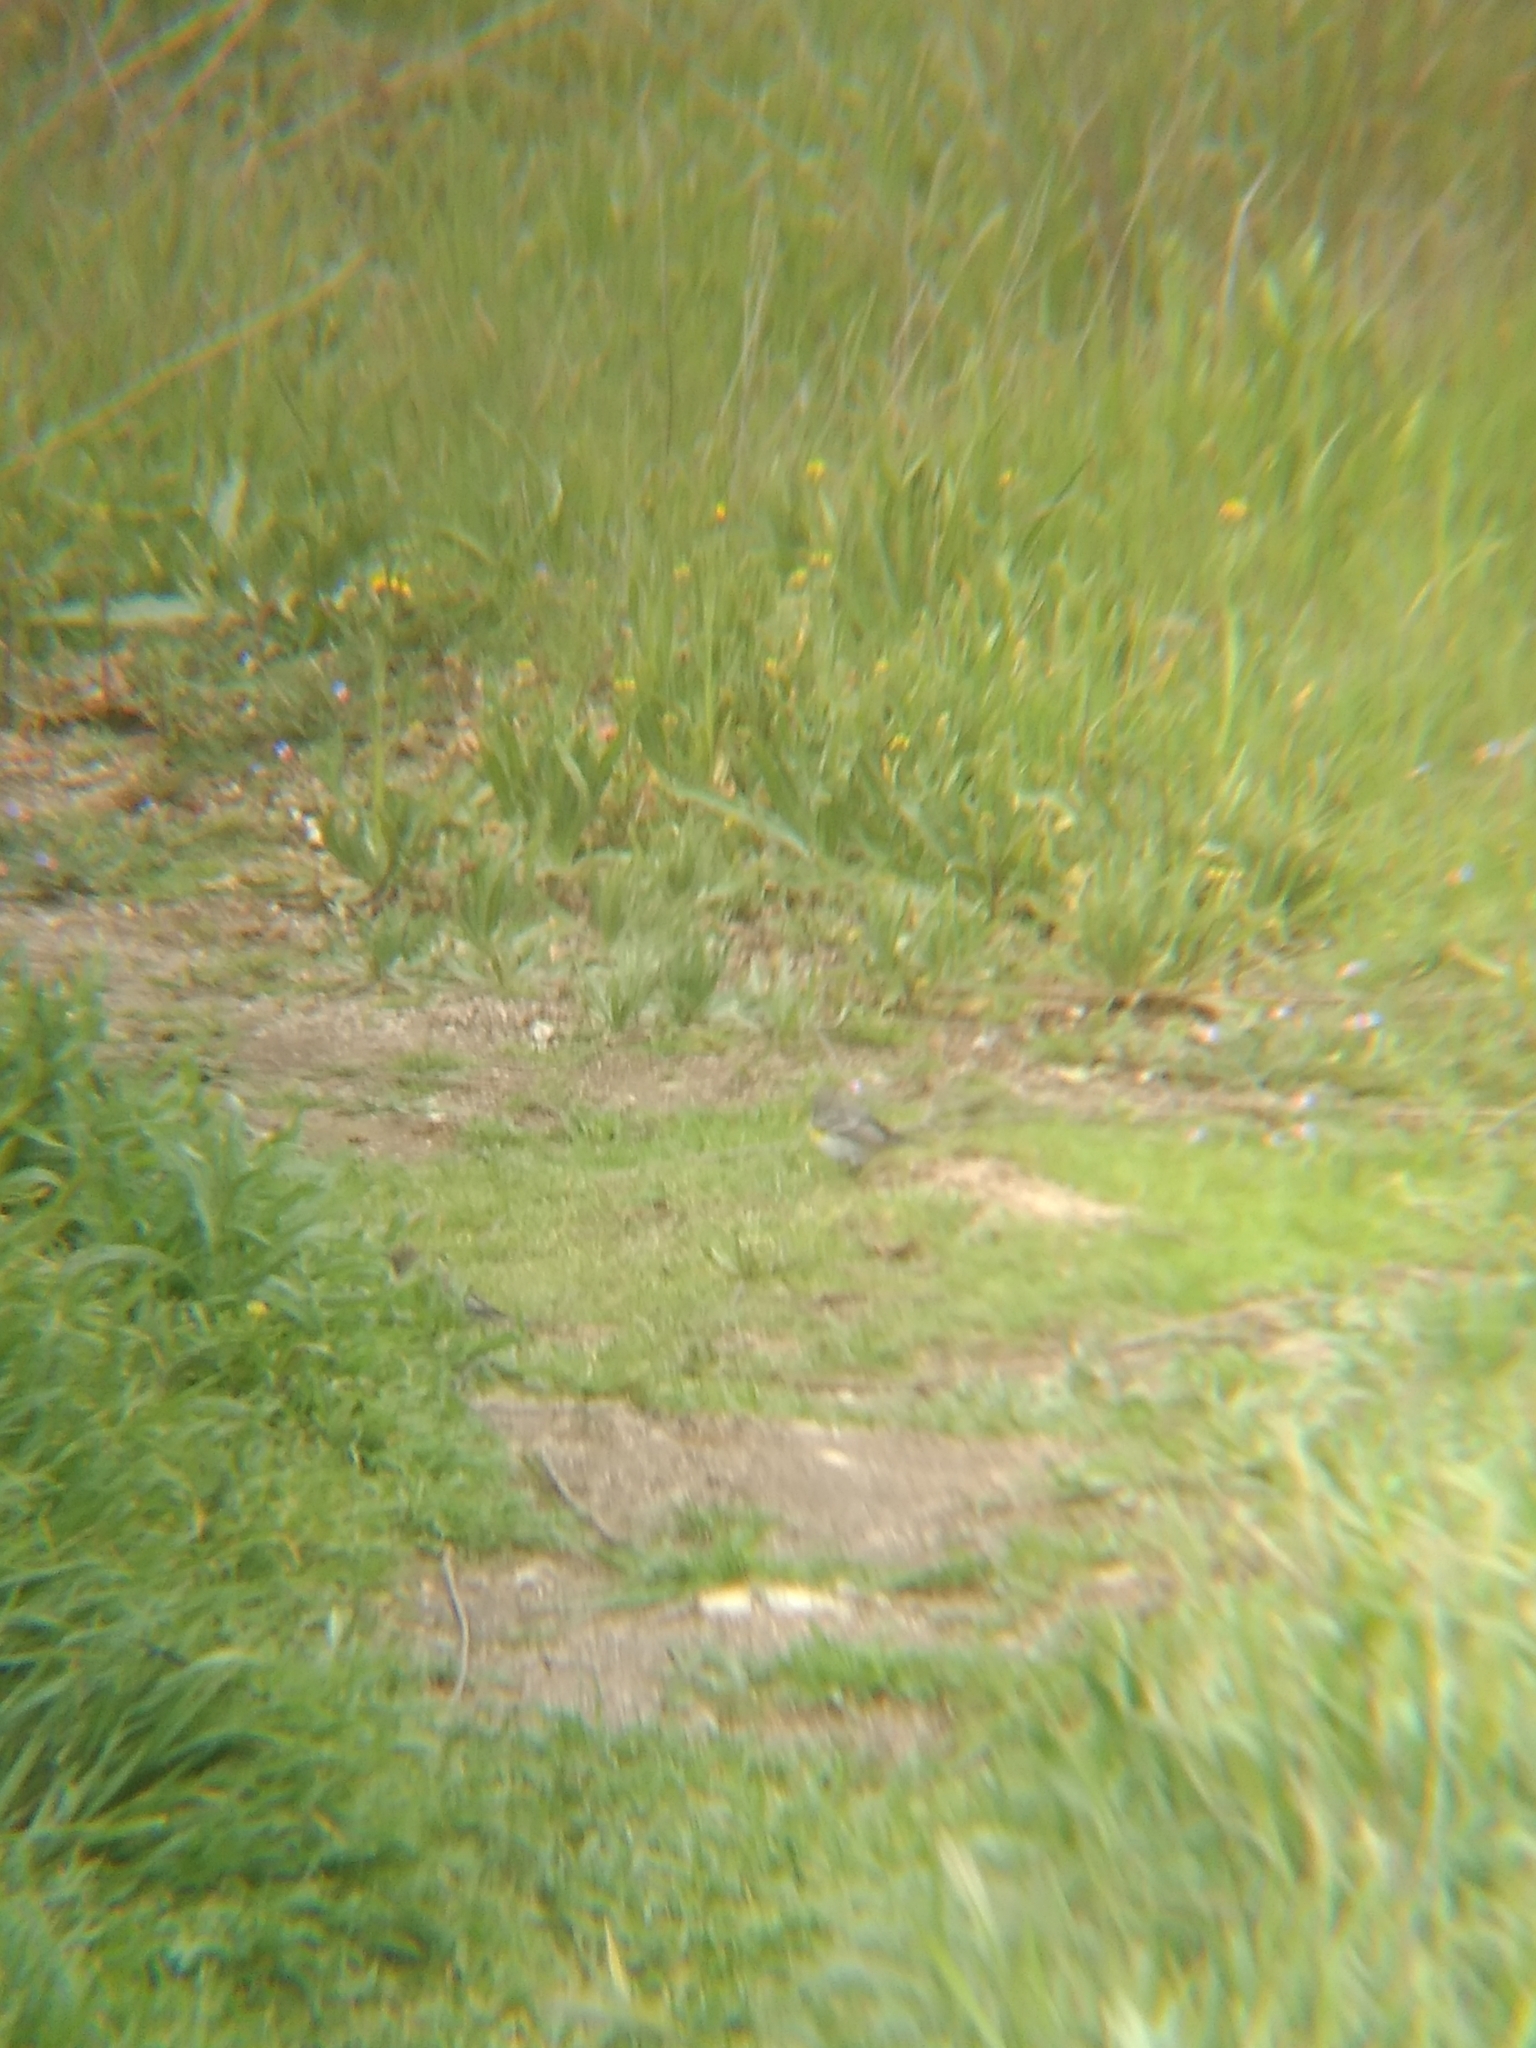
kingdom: Animalia
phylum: Chordata
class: Aves
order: Passeriformes
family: Parulidae
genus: Setophaga
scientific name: Setophaga coronata
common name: Myrtle warbler
